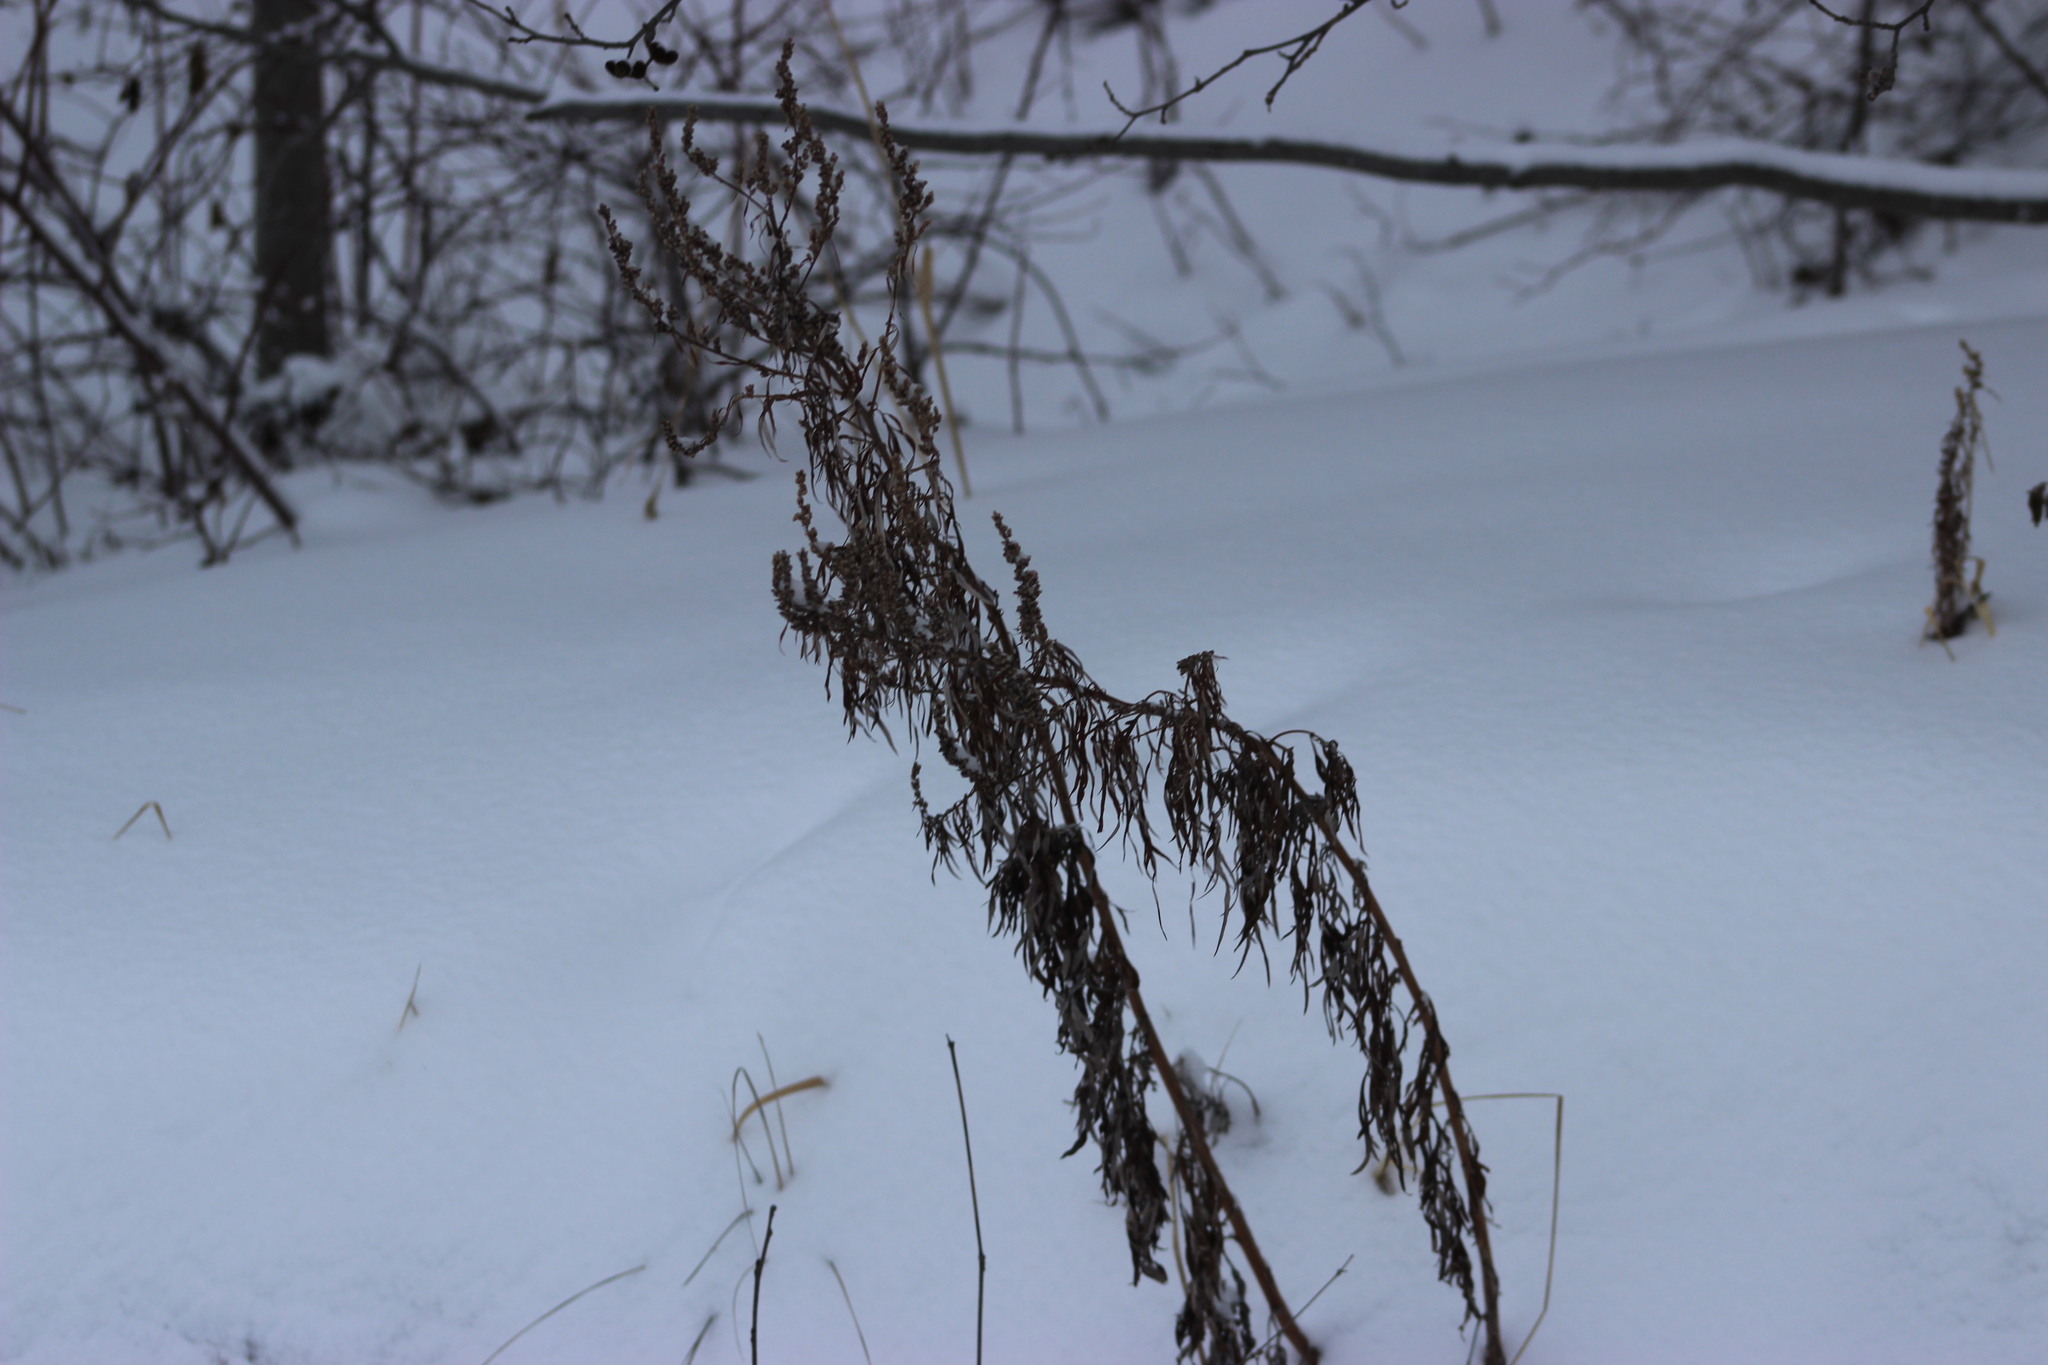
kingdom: Plantae
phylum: Tracheophyta
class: Magnoliopsida
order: Asterales
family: Asteraceae
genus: Artemisia
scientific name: Artemisia vulgaris
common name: Mugwort
